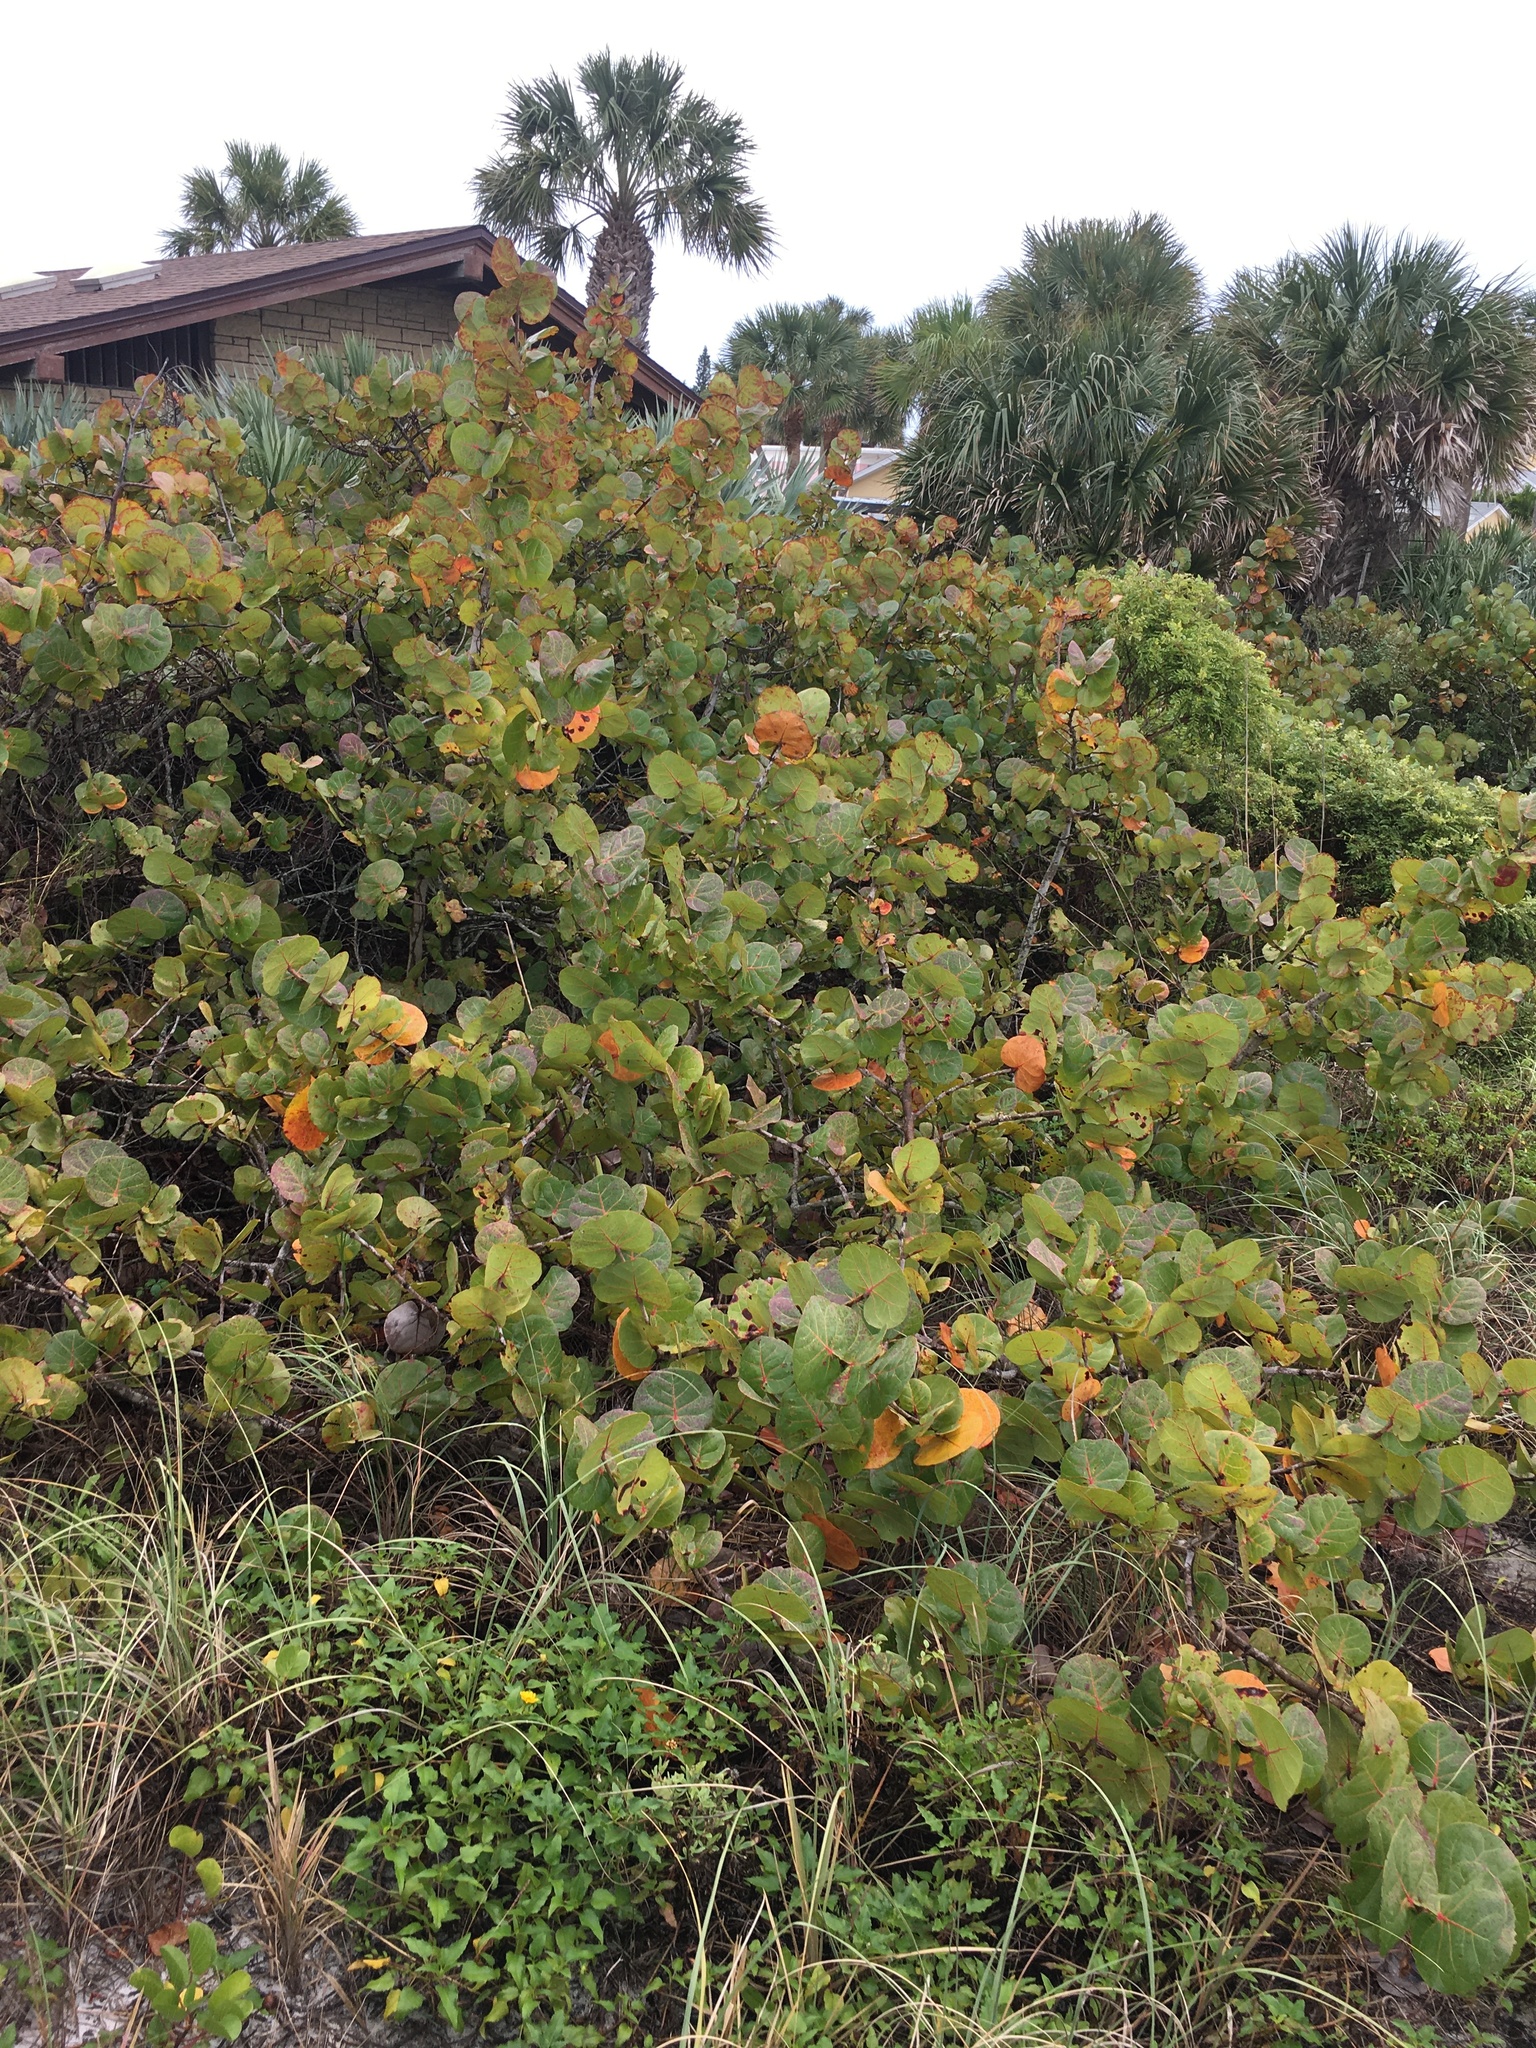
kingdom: Plantae
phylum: Tracheophyta
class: Magnoliopsida
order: Caryophyllales
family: Polygonaceae
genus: Coccoloba
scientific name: Coccoloba uvifera
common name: Seagrape
